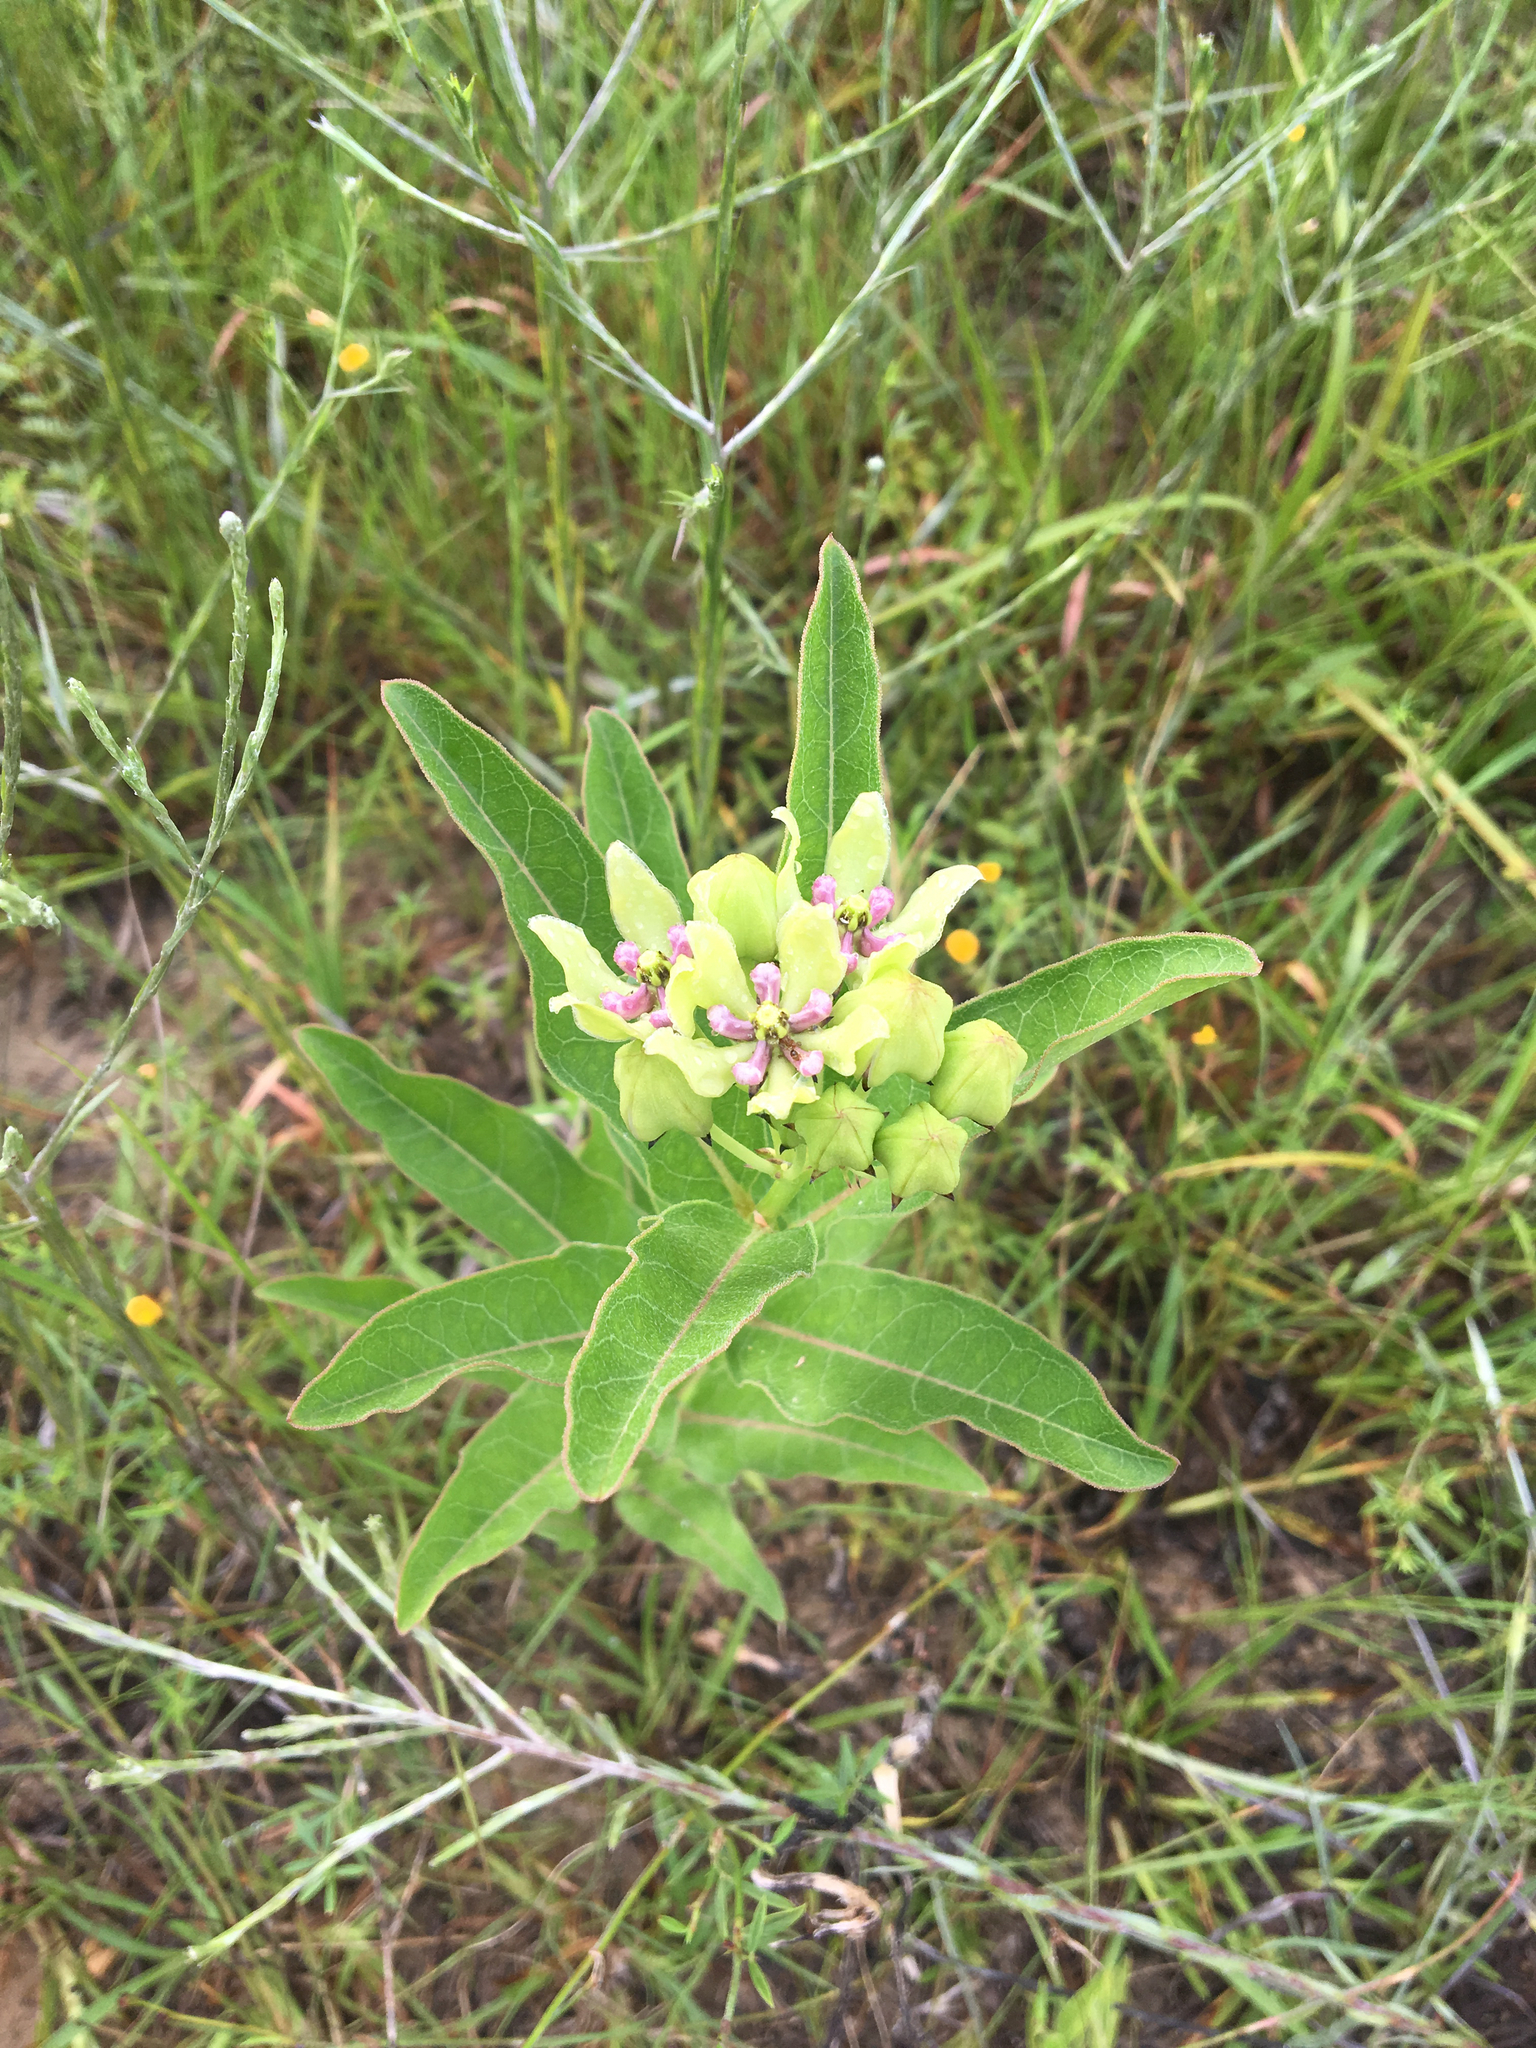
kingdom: Plantae
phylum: Tracheophyta
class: Magnoliopsida
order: Gentianales
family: Apocynaceae
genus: Asclepias
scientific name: Asclepias viridis
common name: Antelope-horns
